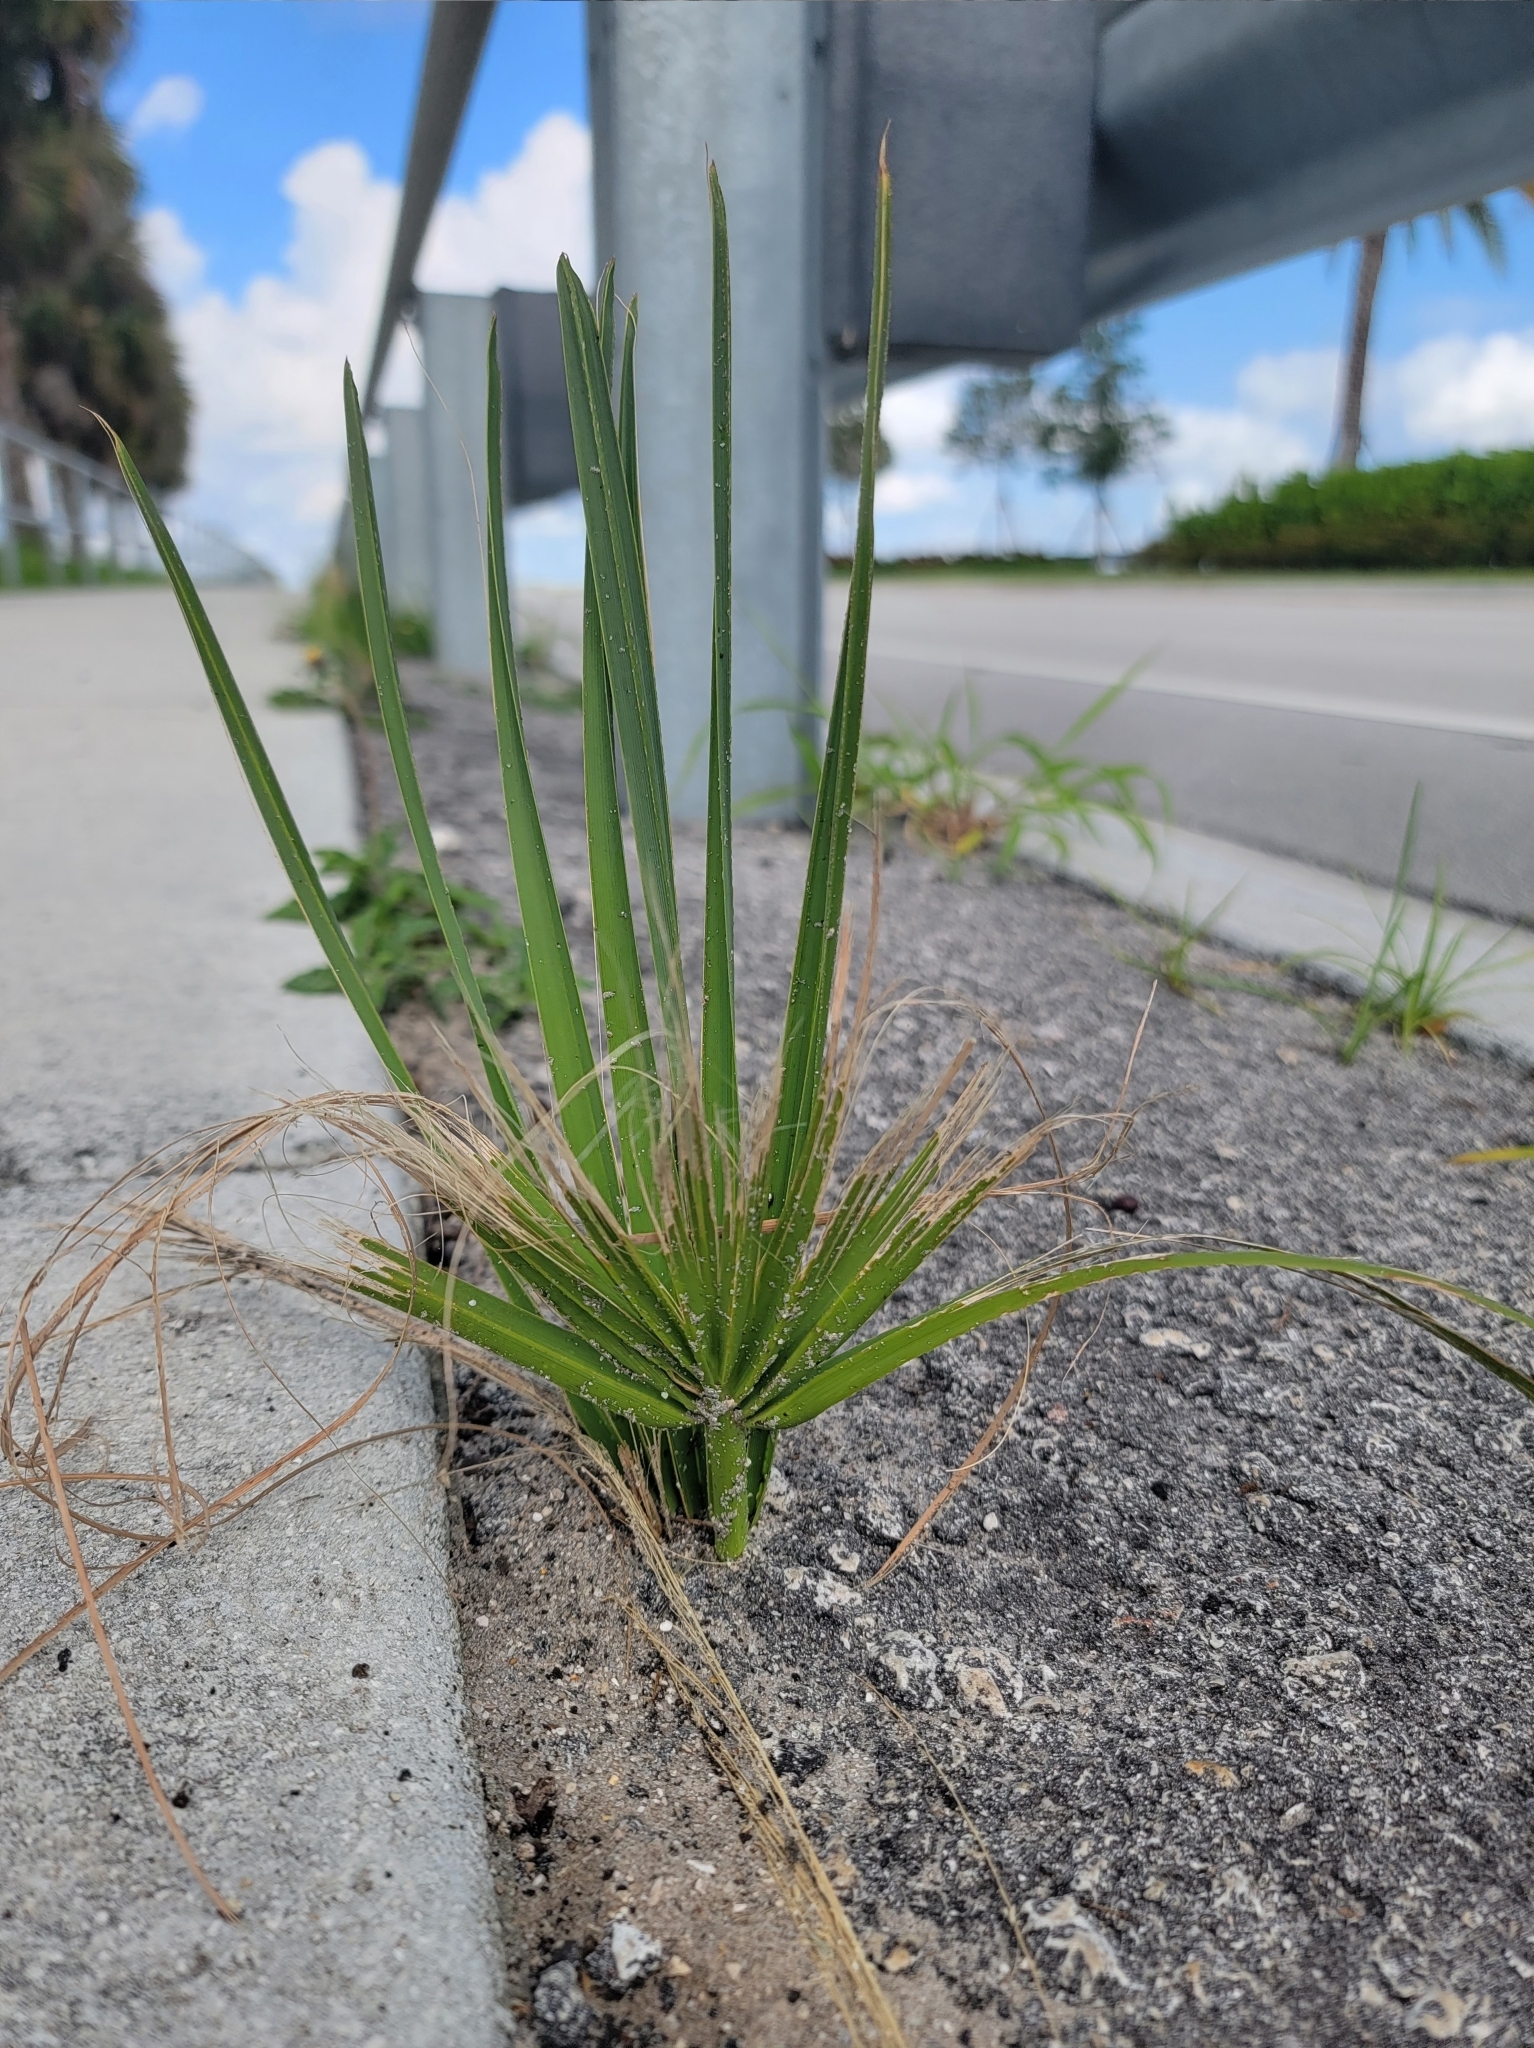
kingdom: Plantae
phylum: Tracheophyta
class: Liliopsida
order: Arecales
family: Arecaceae
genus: Serenoa
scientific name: Serenoa repens
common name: Saw-palmetto
